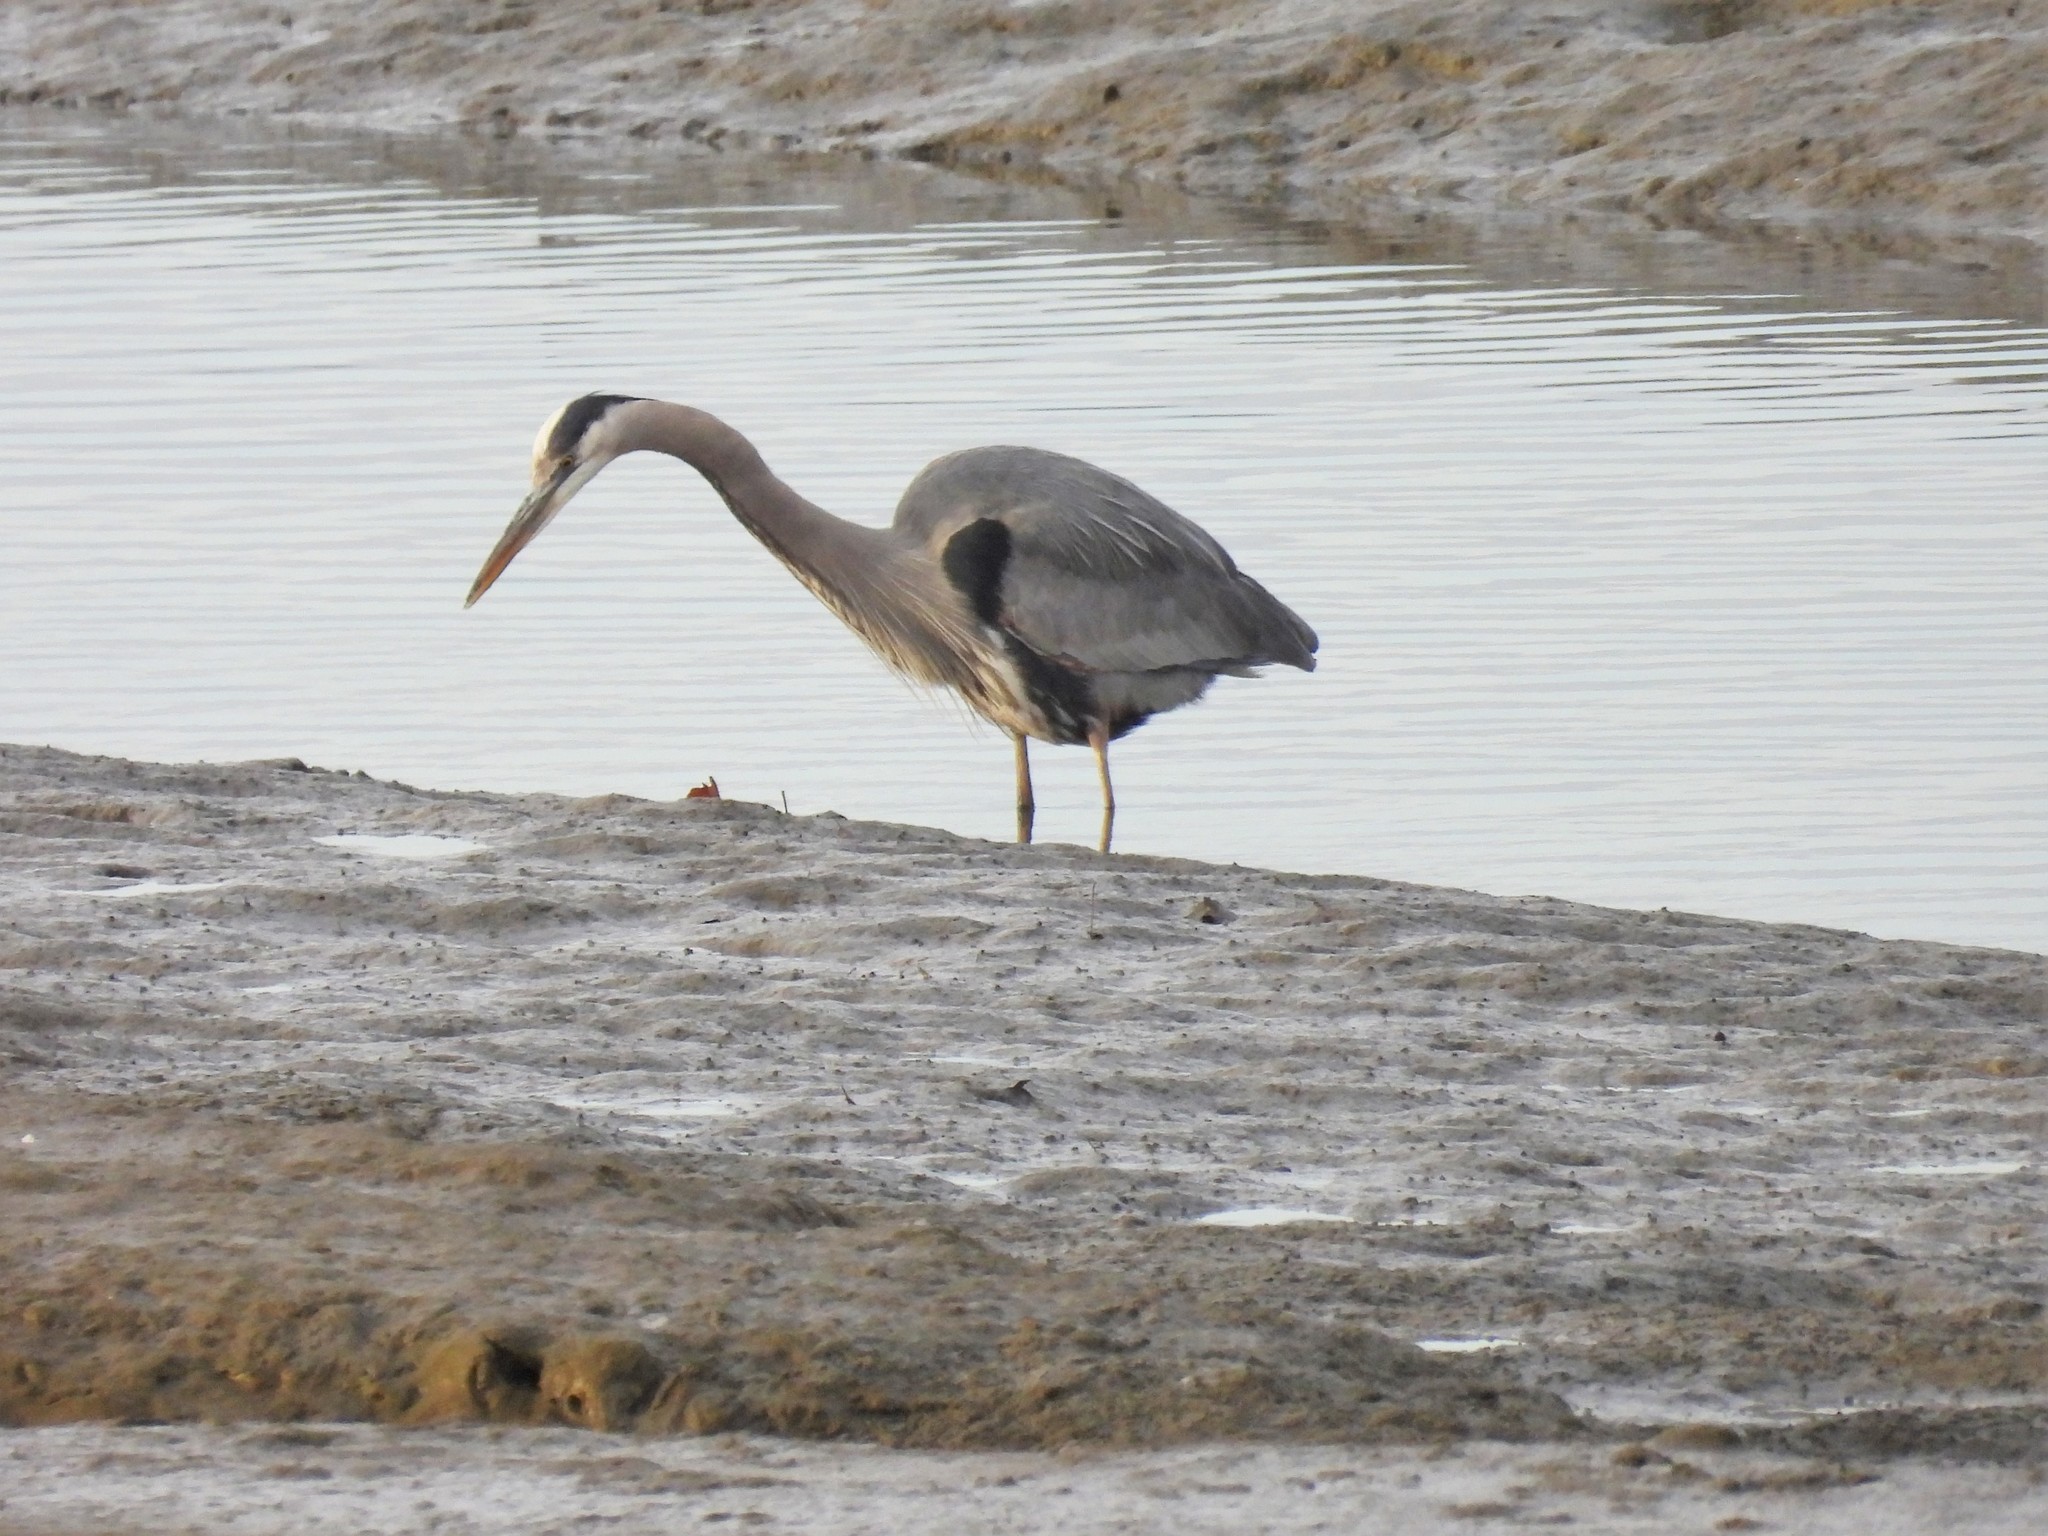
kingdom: Animalia
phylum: Chordata
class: Aves
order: Pelecaniformes
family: Ardeidae
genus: Ardea
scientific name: Ardea herodias
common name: Great blue heron
